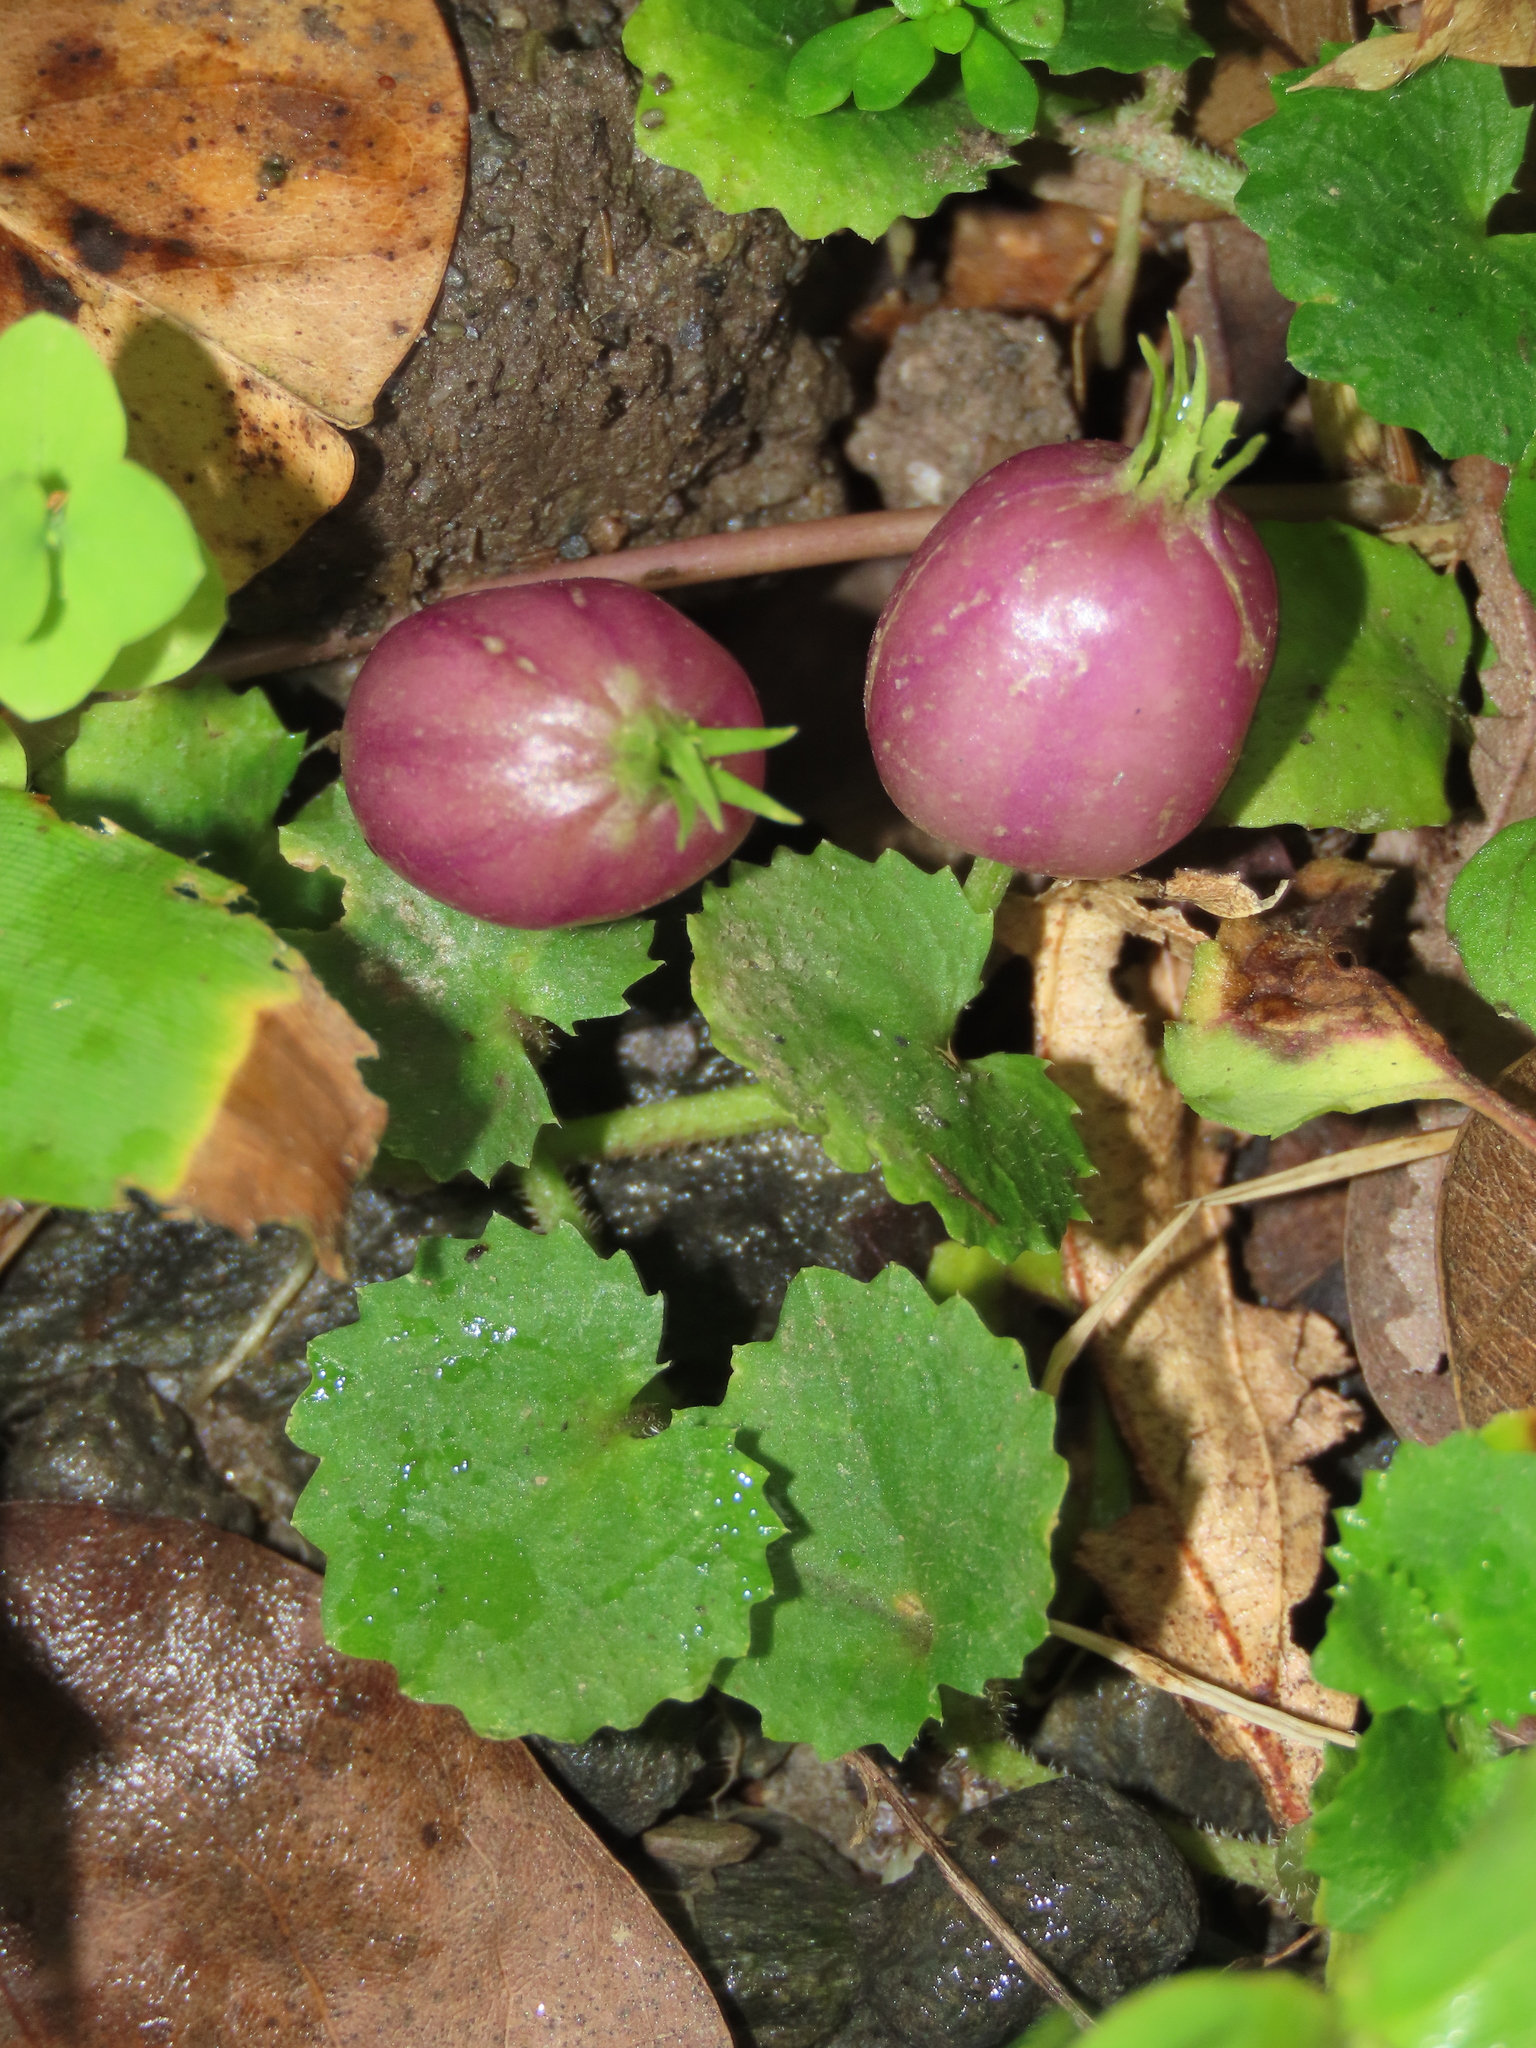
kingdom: Plantae
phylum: Tracheophyta
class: Magnoliopsida
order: Asterales
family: Campanulaceae
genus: Lobelia
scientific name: Lobelia nummularia
